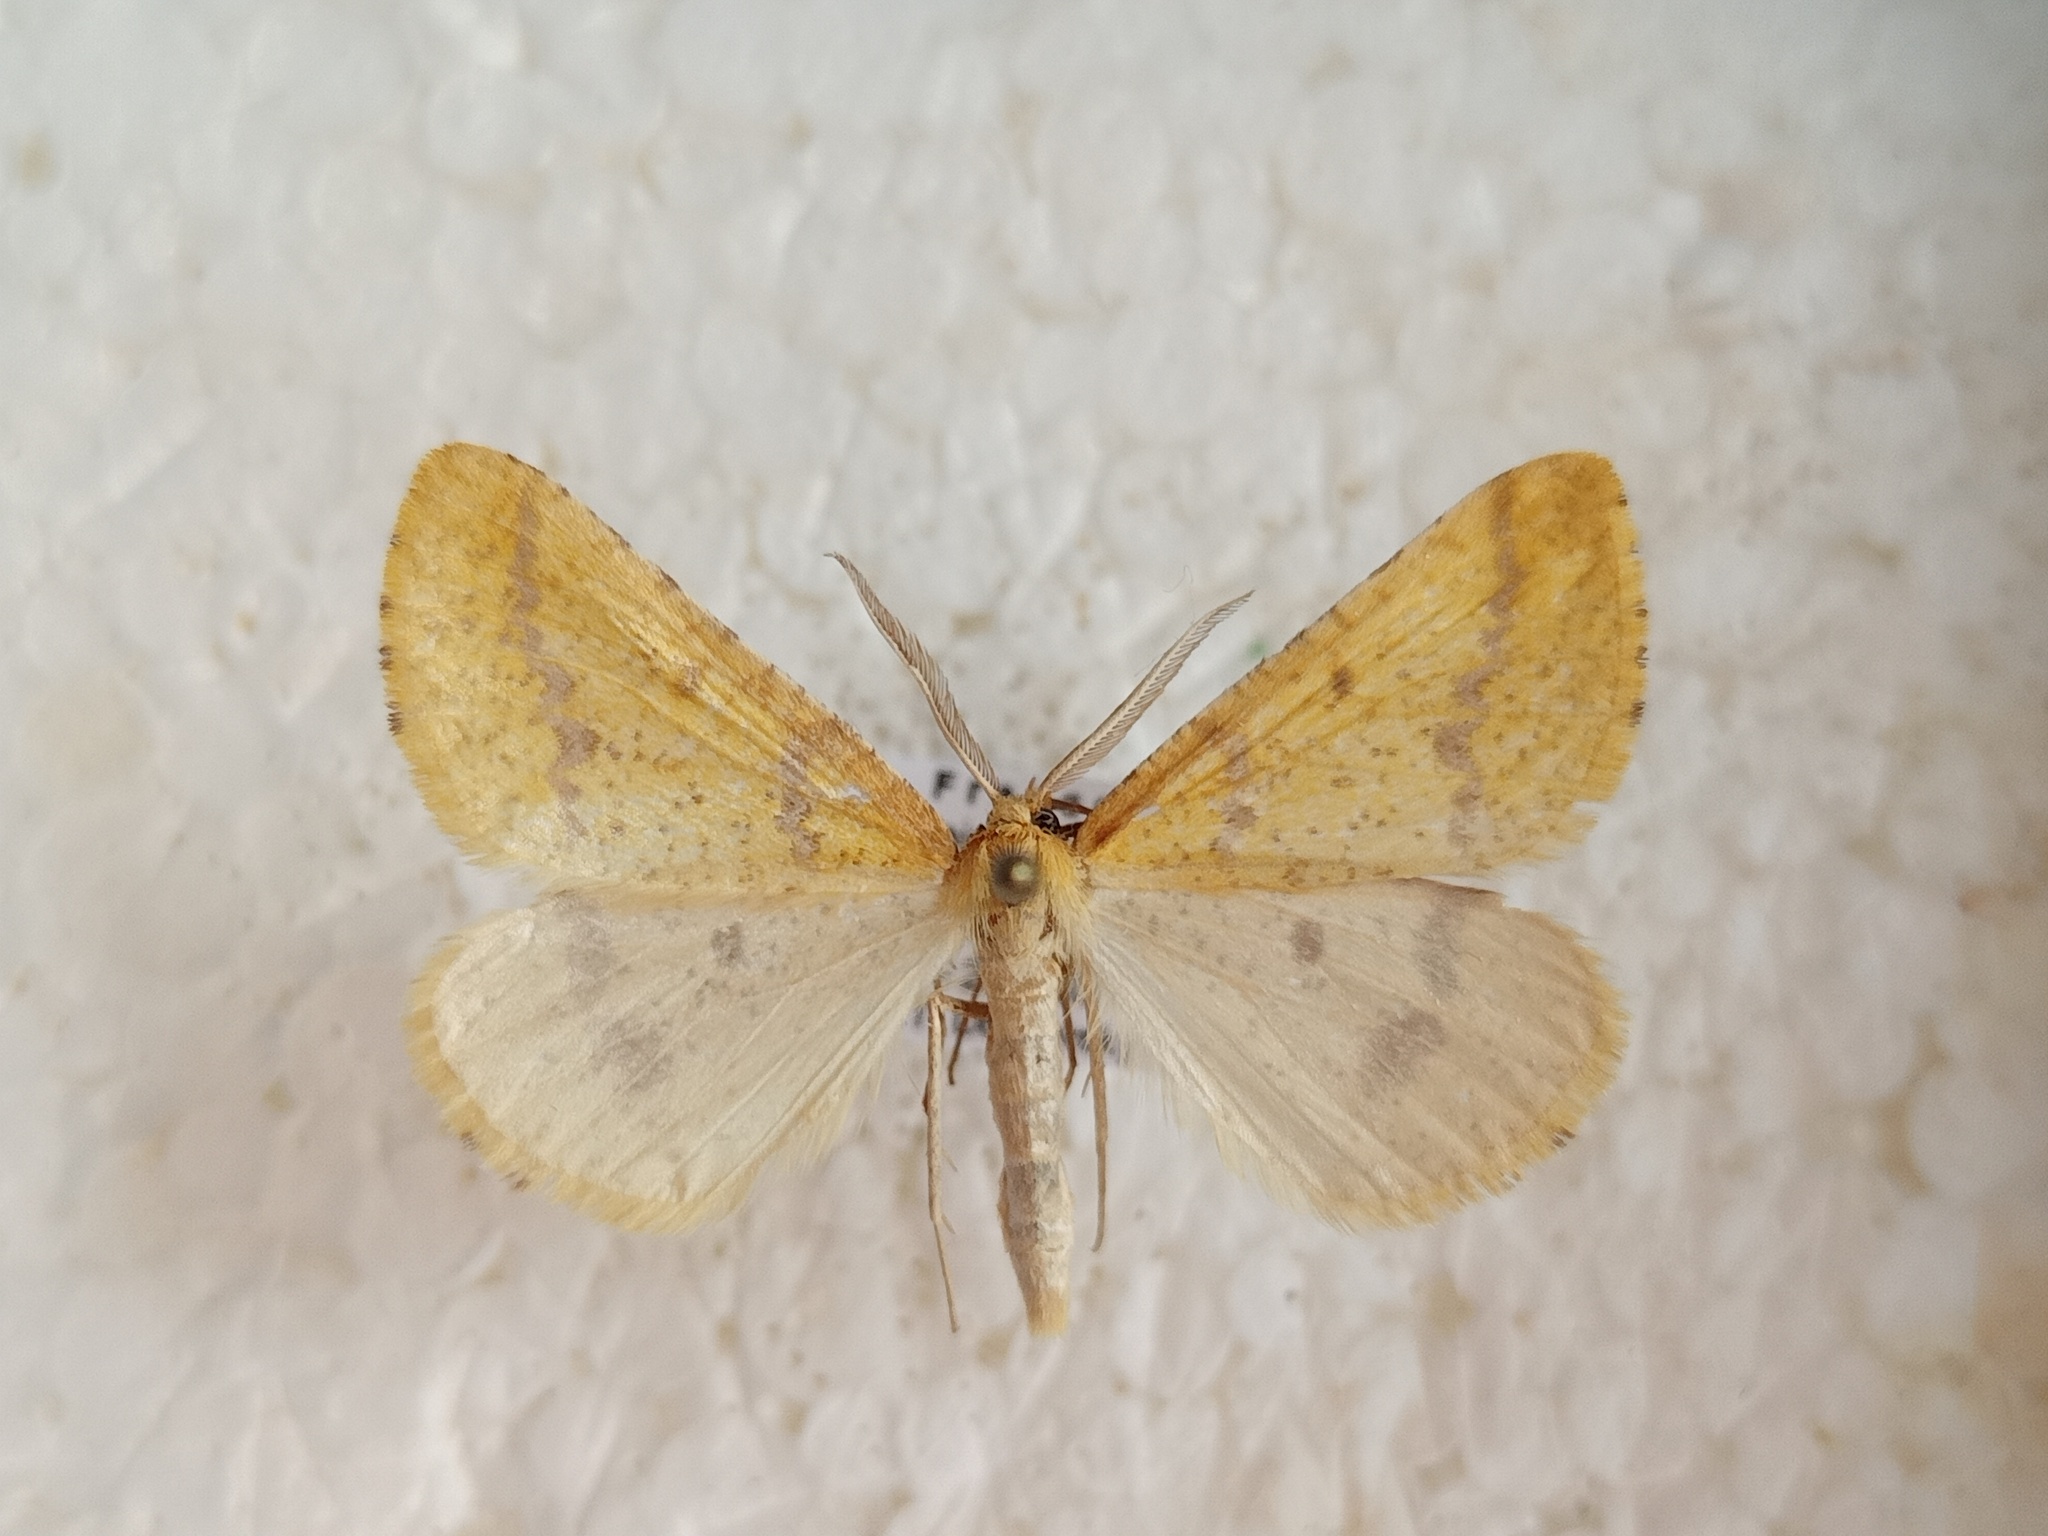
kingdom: Animalia
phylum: Arthropoda
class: Insecta
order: Lepidoptera
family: Geometridae
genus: Aspitates
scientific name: Aspitates ochrearia
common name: Yellow belle
